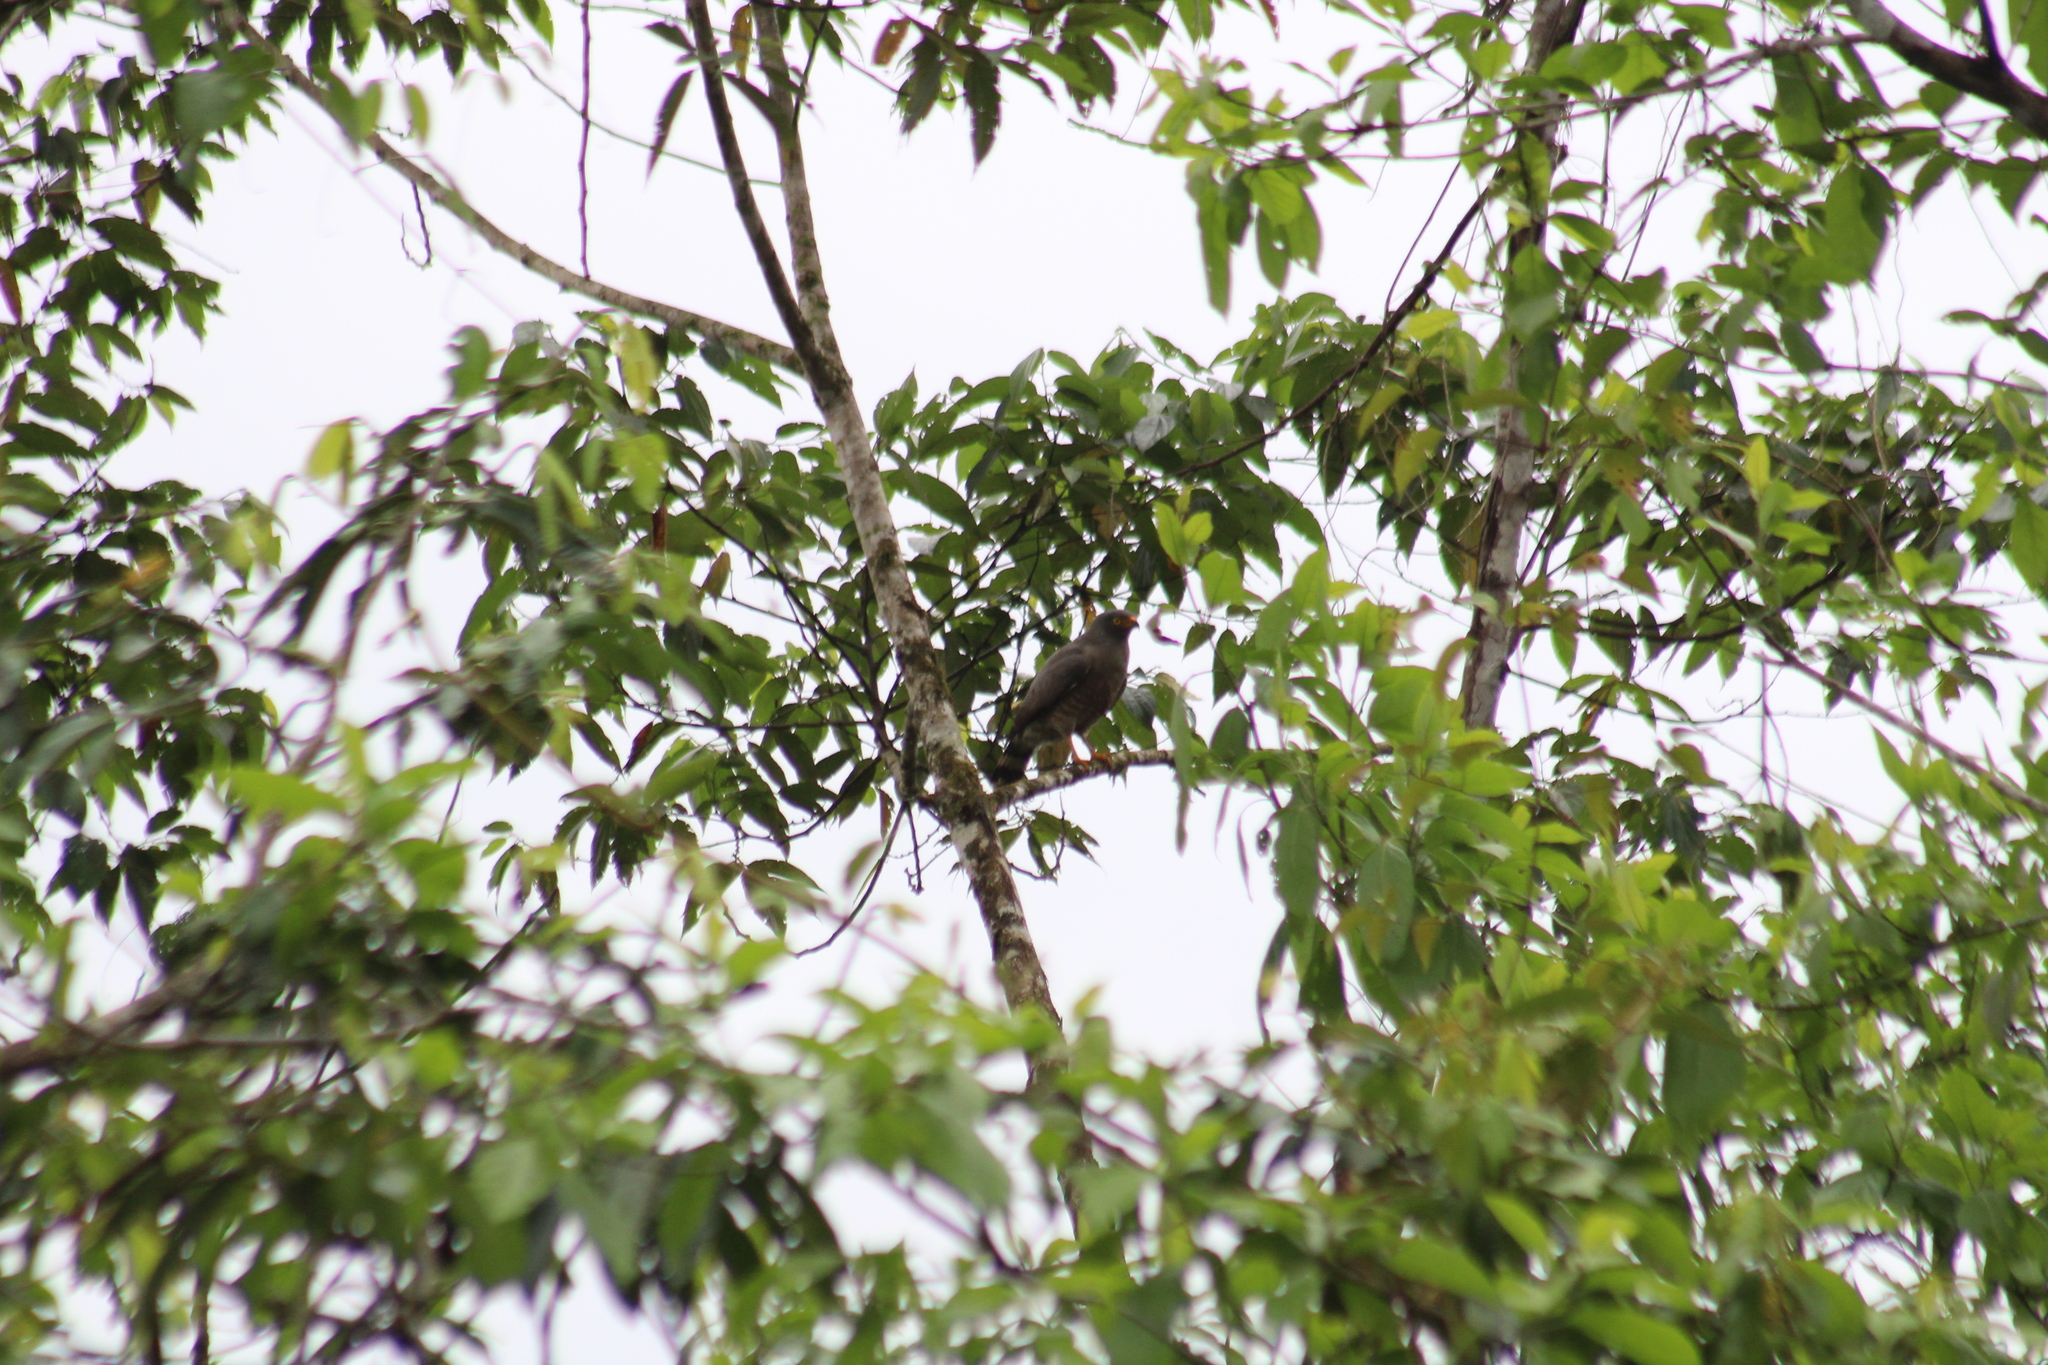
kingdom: Animalia
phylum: Chordata
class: Aves
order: Accipitriformes
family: Accipitridae
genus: Rupornis
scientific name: Rupornis magnirostris
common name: Roadside hawk
